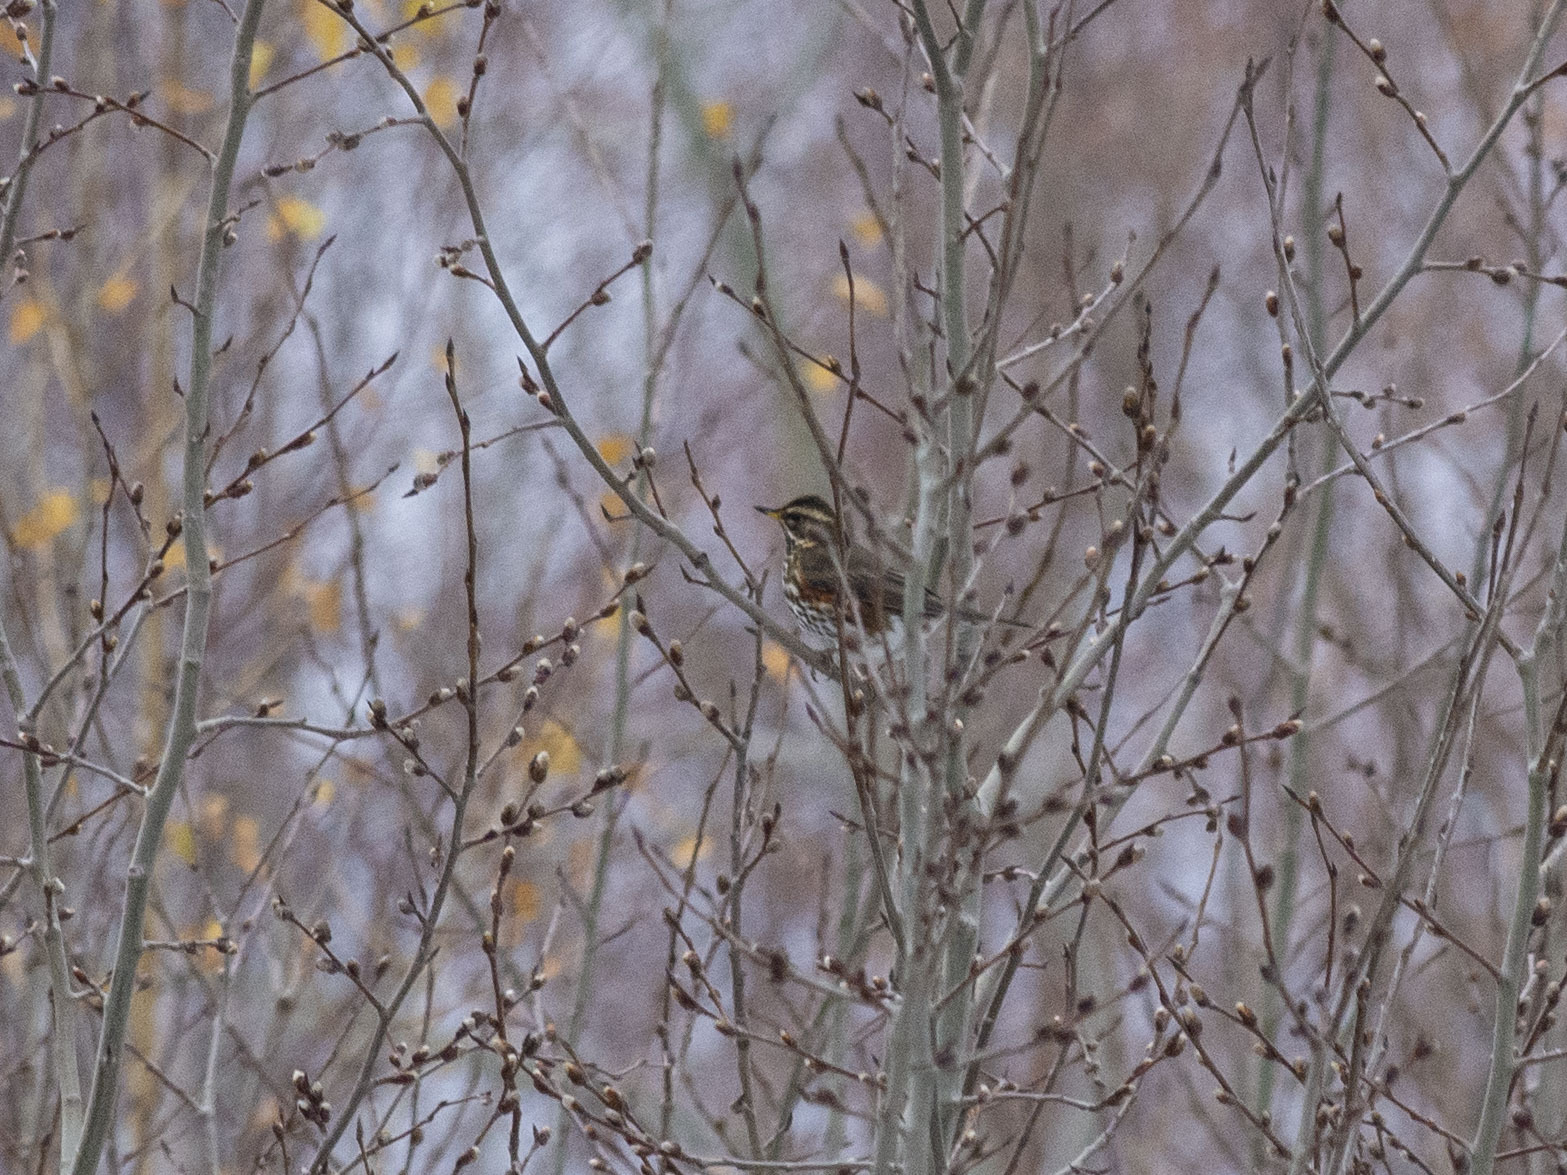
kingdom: Animalia
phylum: Chordata
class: Aves
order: Passeriformes
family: Turdidae
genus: Turdus
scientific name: Turdus iliacus
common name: Redwing
